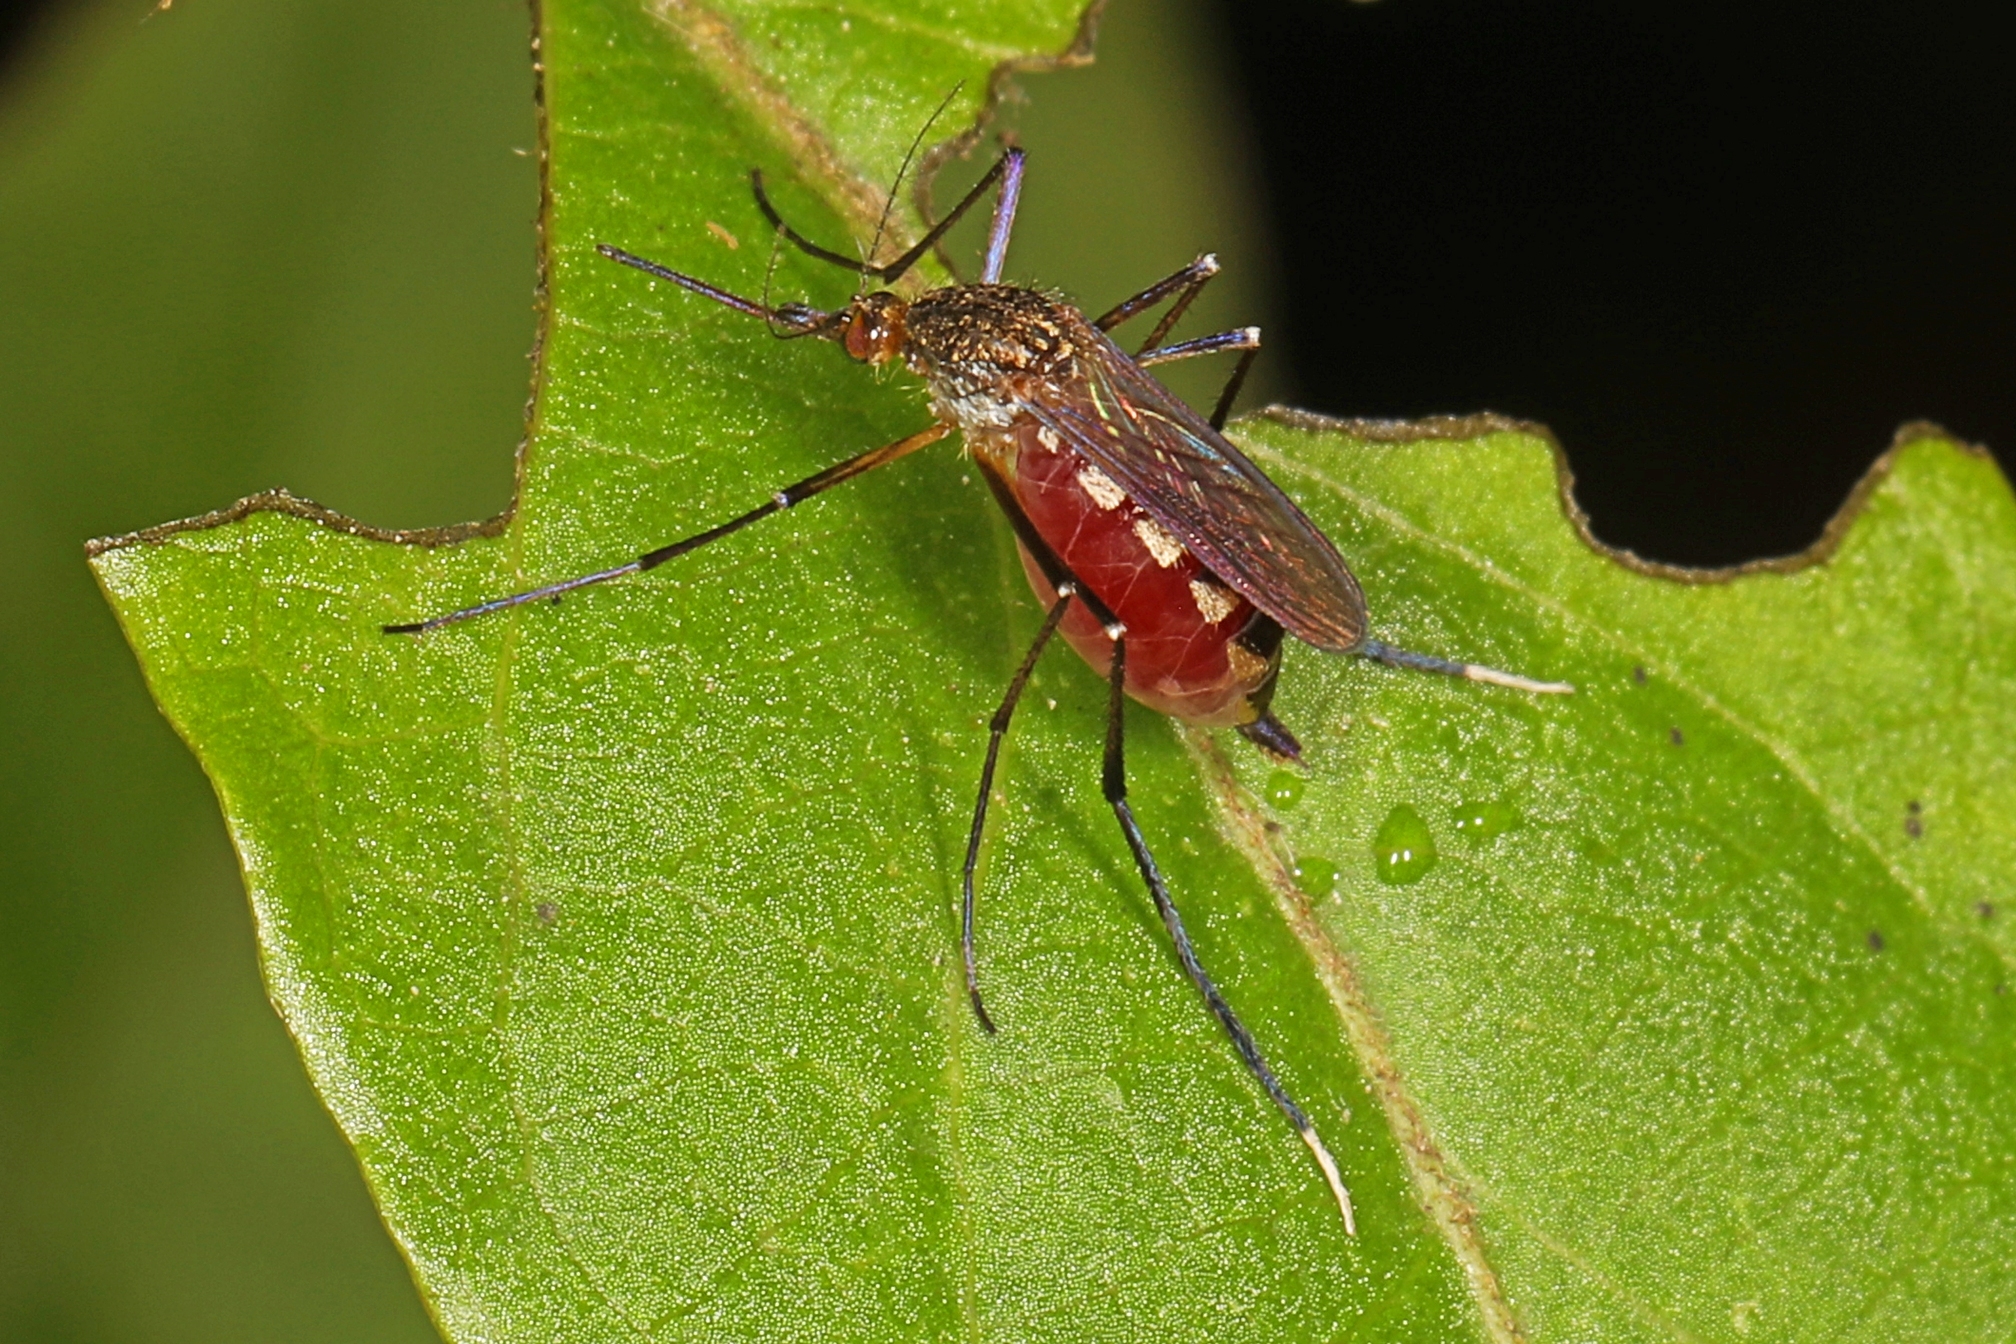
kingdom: Animalia
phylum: Arthropoda
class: Insecta
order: Diptera
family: Culicidae
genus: Psorophora
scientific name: Psorophora ferox
